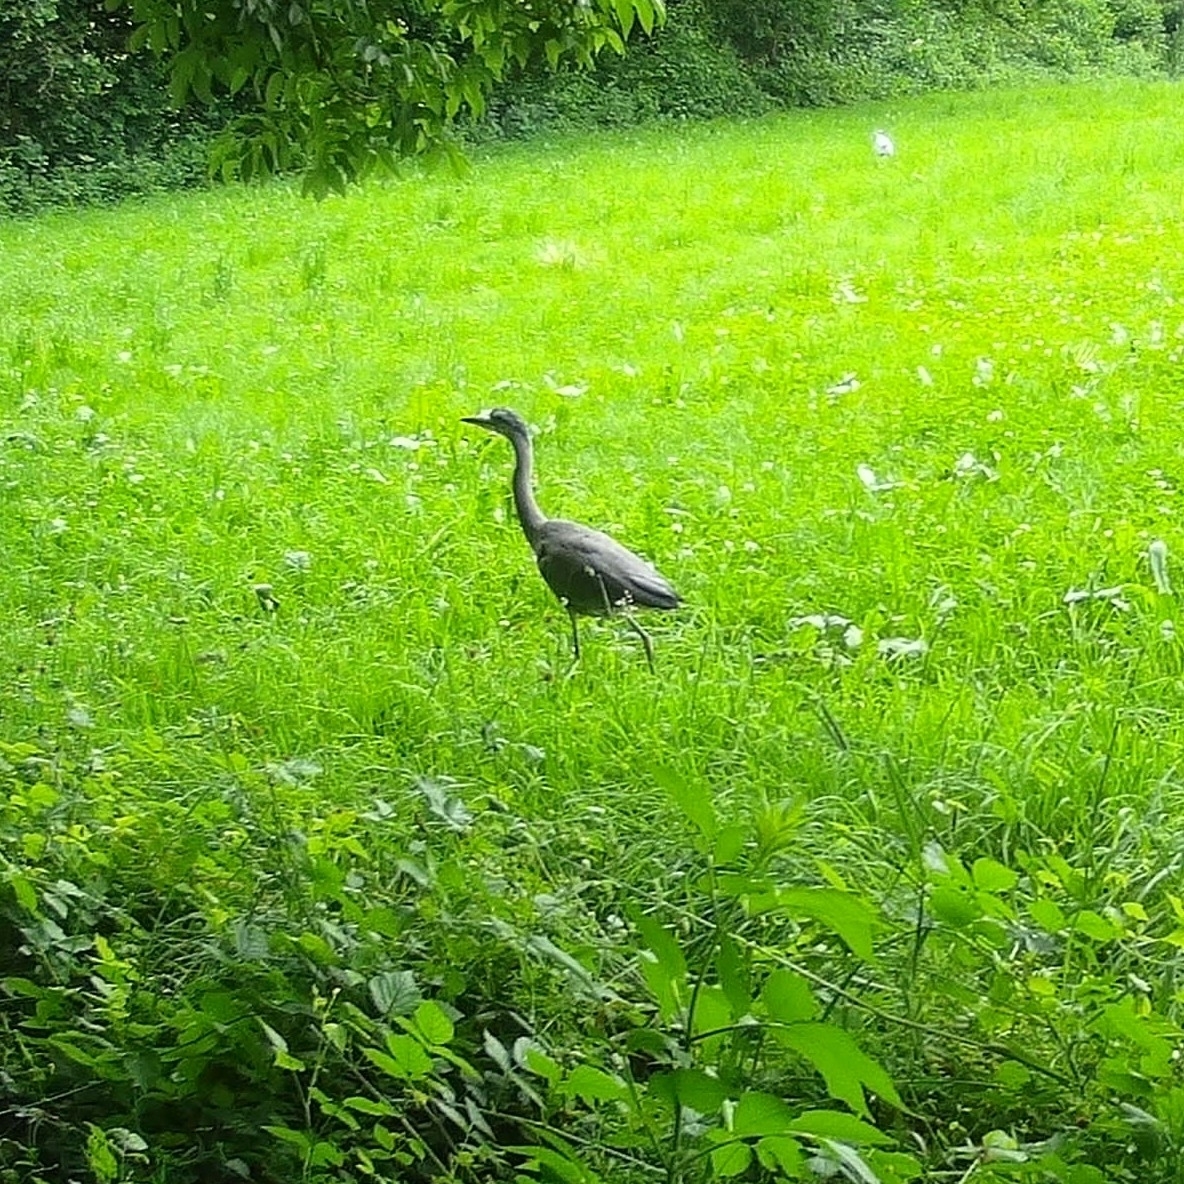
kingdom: Animalia
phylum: Chordata
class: Aves
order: Pelecaniformes
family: Ardeidae
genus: Ardea
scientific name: Ardea cinerea
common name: Grey heron
